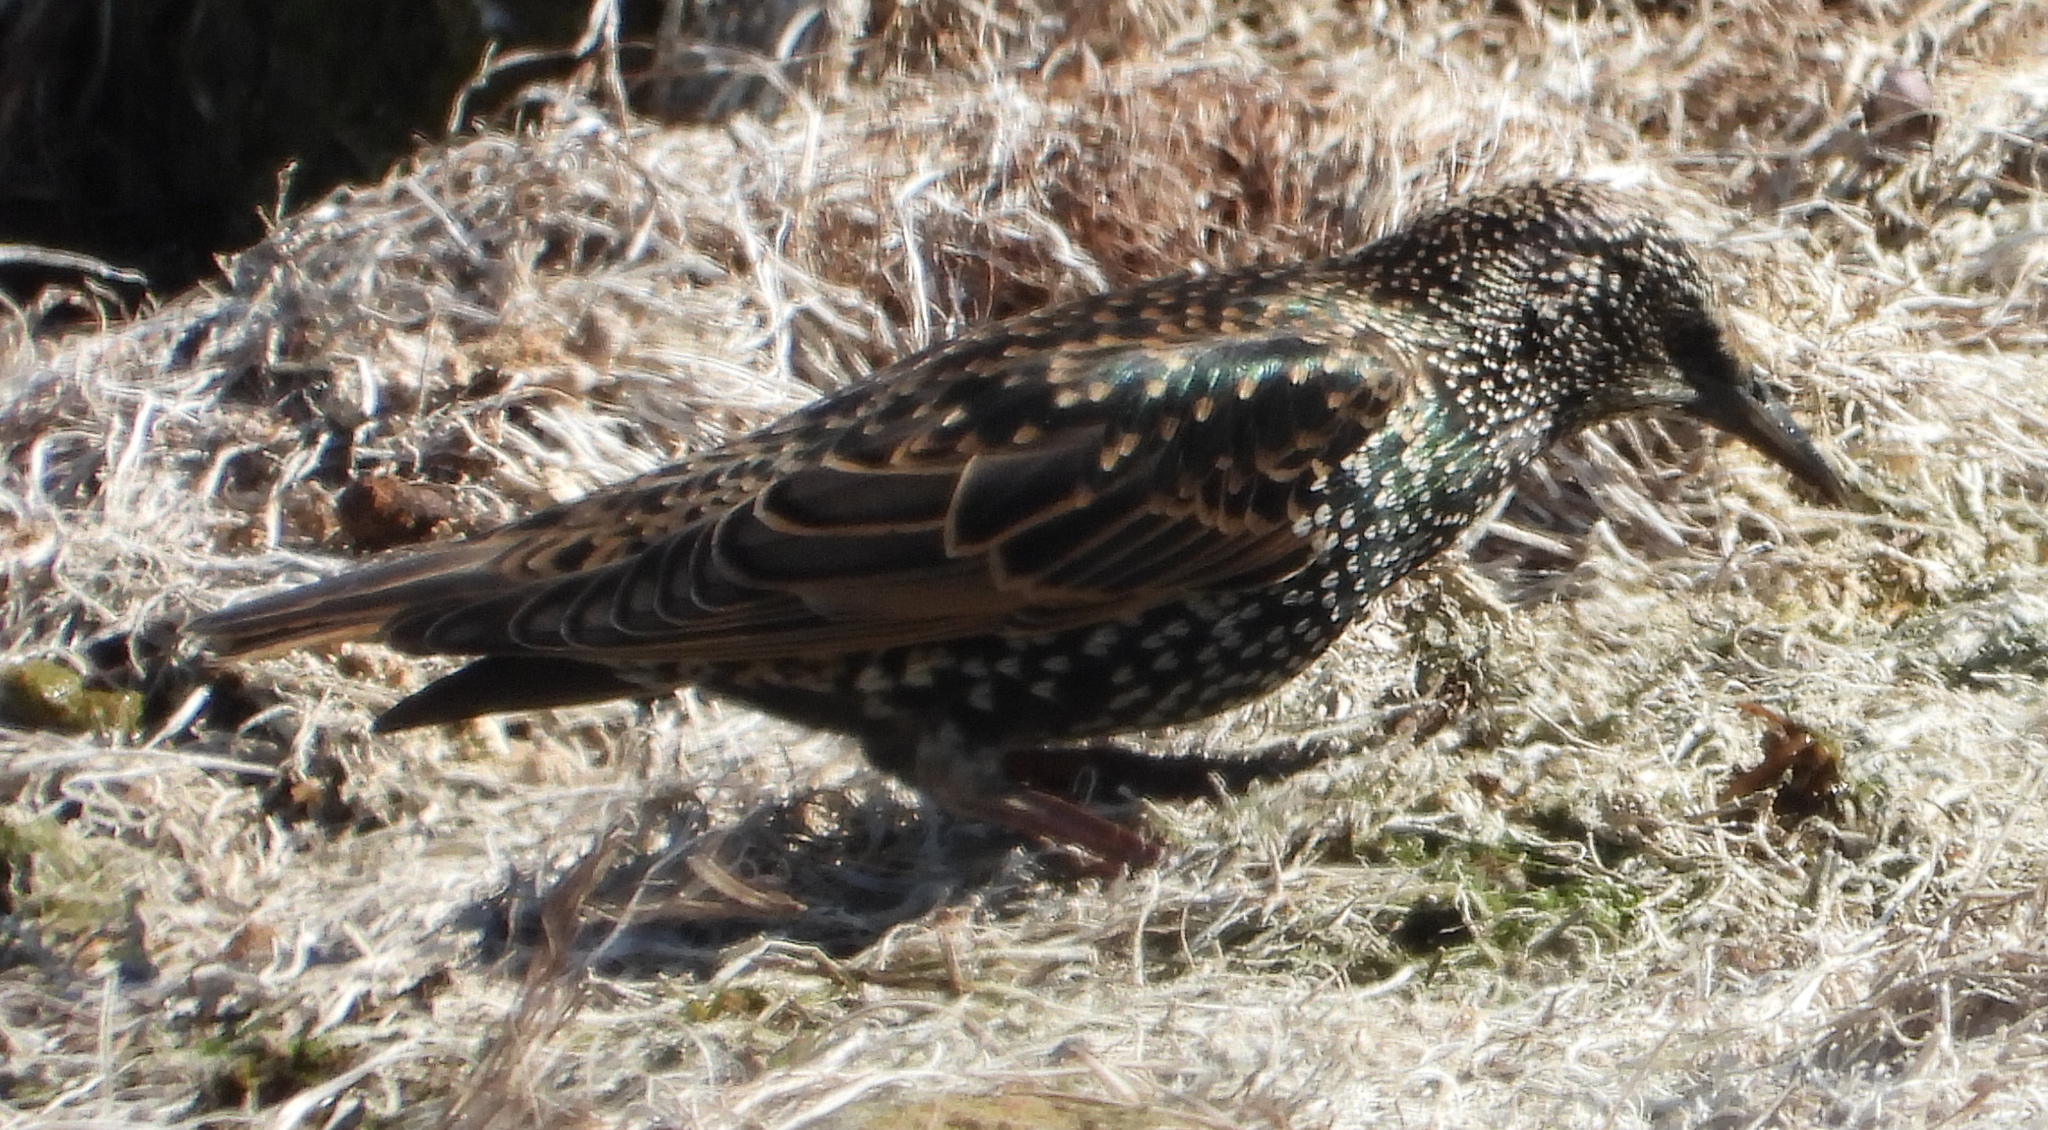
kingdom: Animalia
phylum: Chordata
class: Aves
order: Passeriformes
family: Sturnidae
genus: Sturnus
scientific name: Sturnus vulgaris
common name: Common starling
